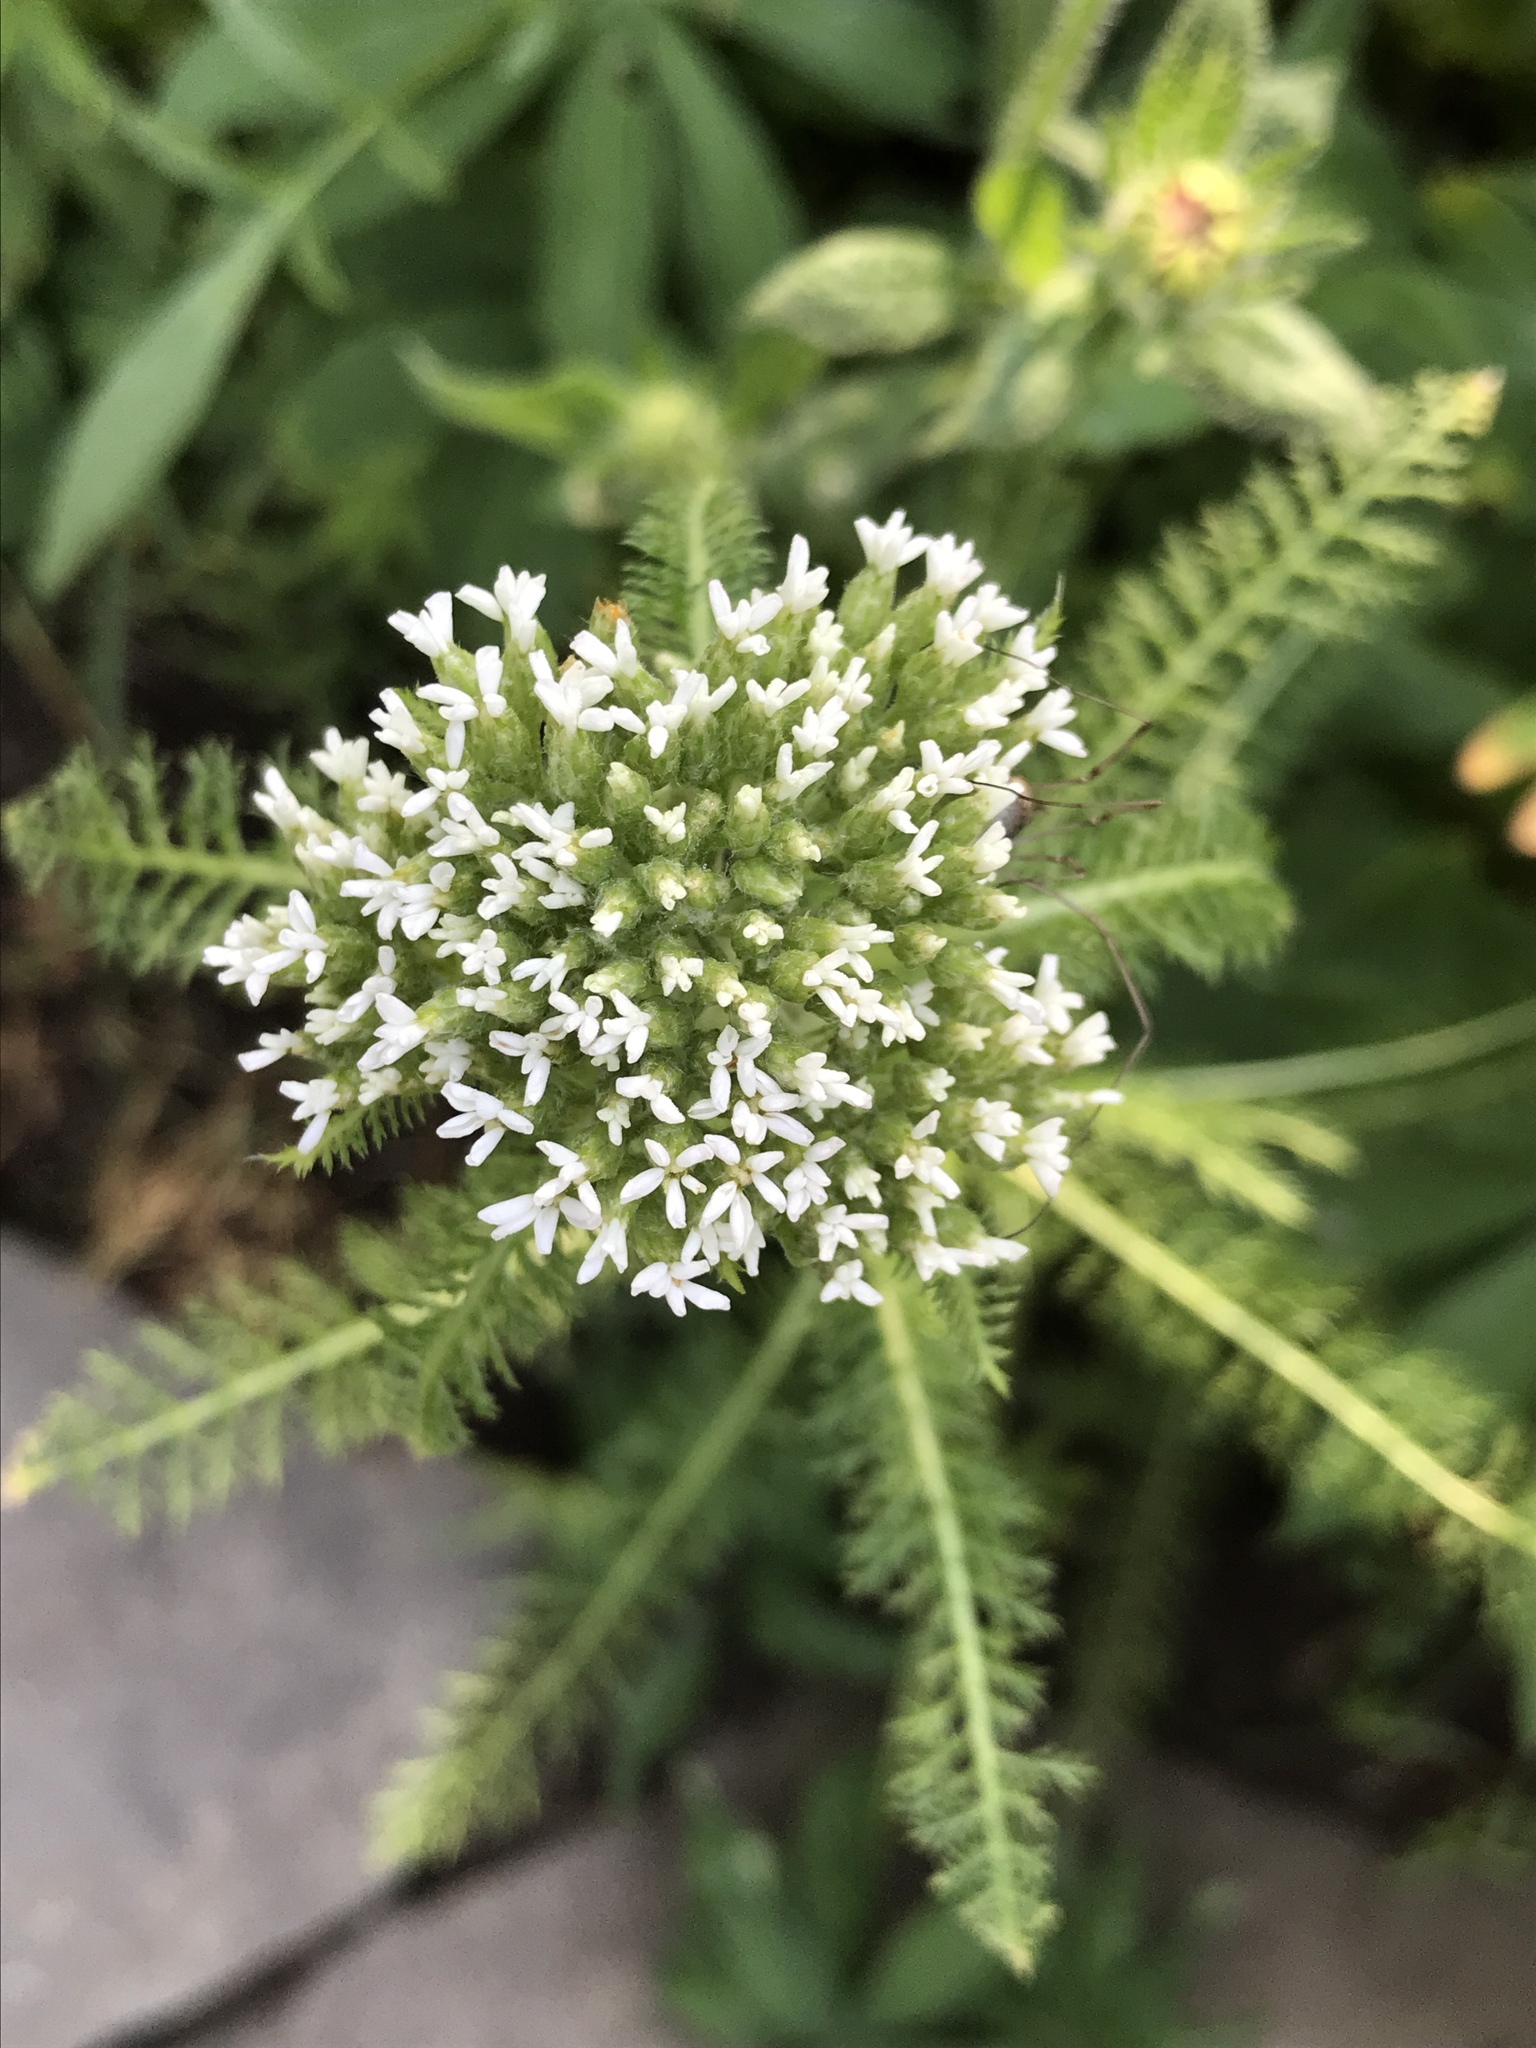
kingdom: Plantae
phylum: Tracheophyta
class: Magnoliopsida
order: Asterales
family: Asteraceae
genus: Achillea
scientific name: Achillea millefolium
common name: Yarrow
